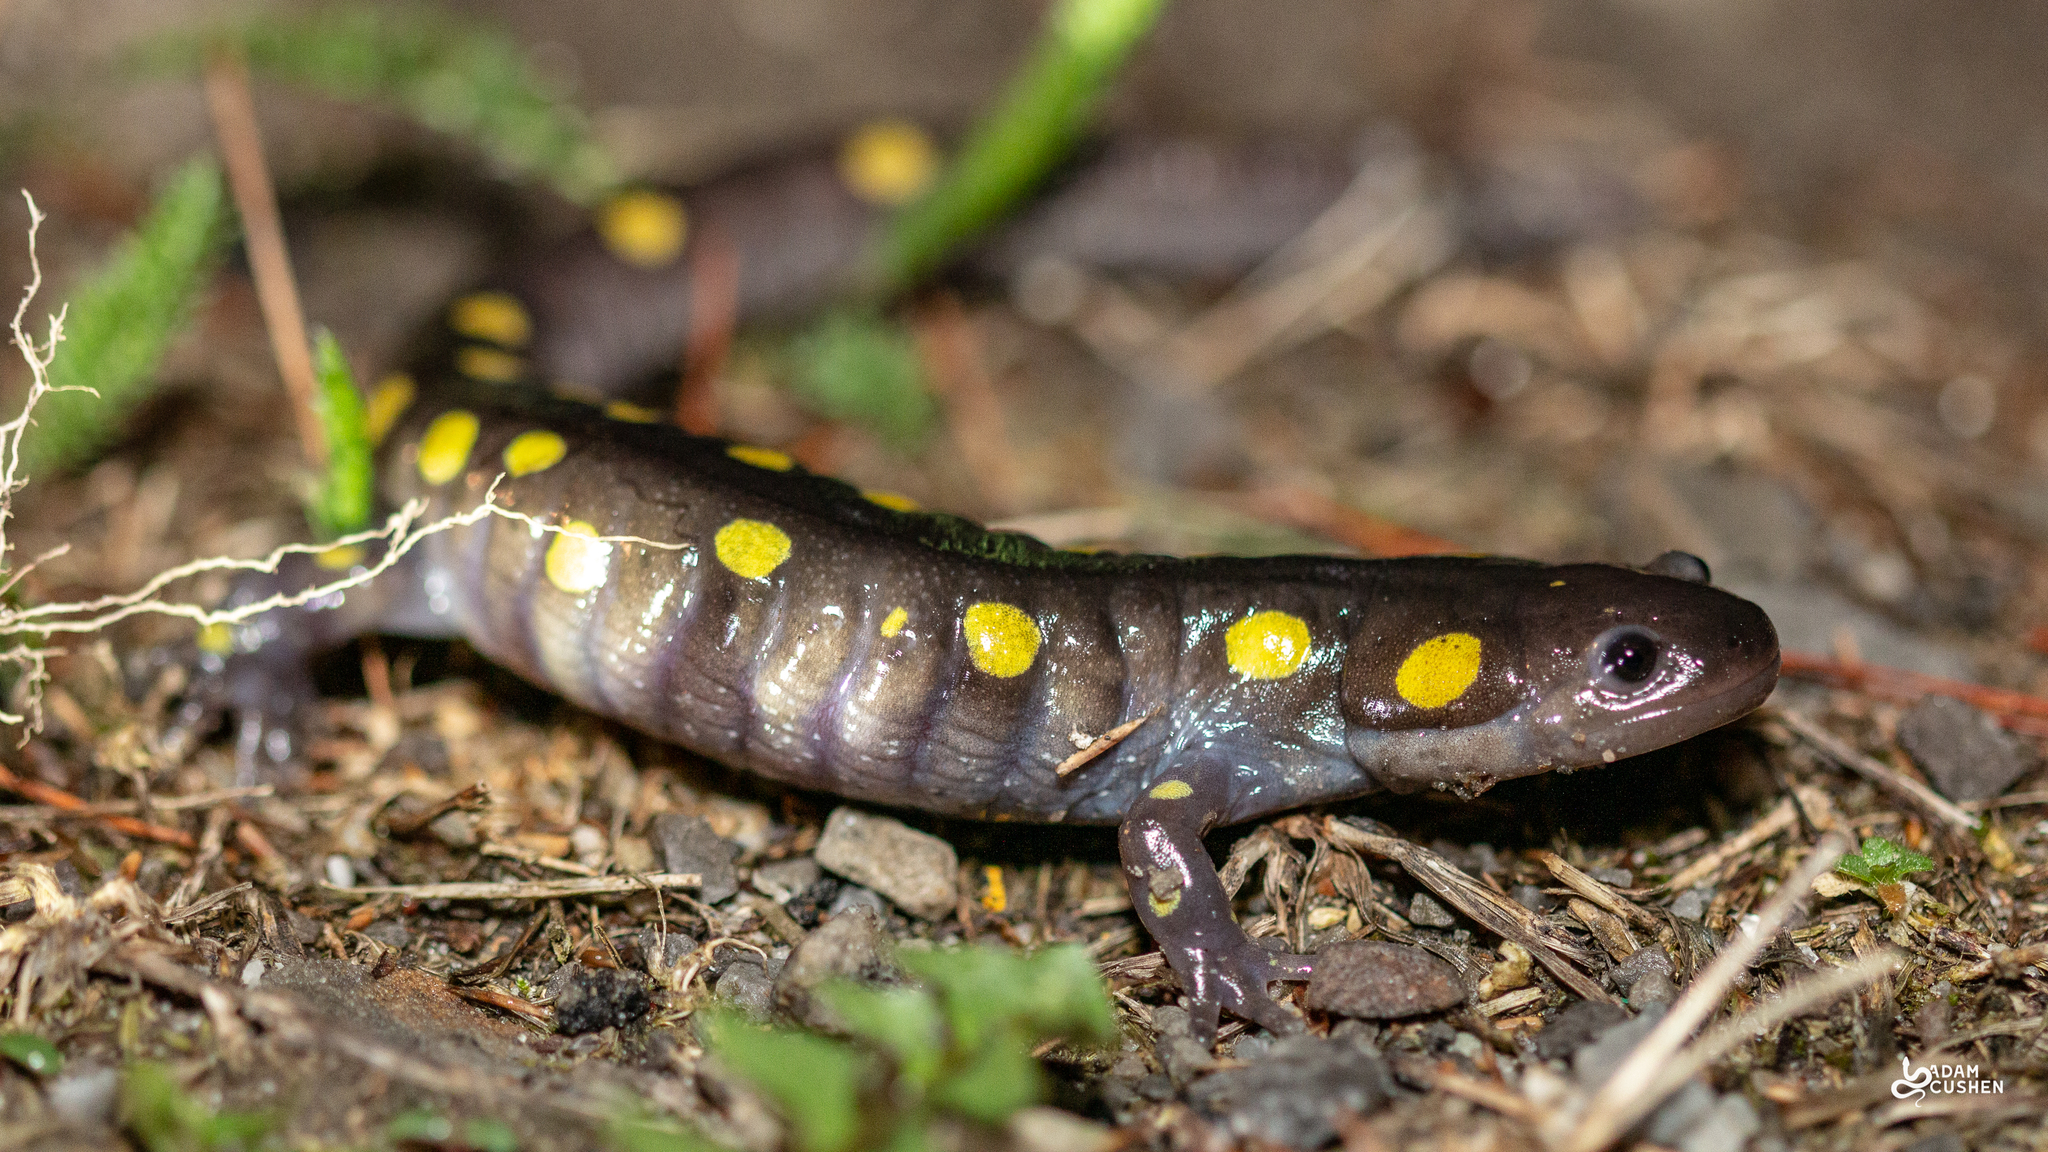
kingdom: Animalia
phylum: Chordata
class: Amphibia
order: Caudata
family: Ambystomatidae
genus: Ambystoma
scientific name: Ambystoma maculatum
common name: Spotted salamander
